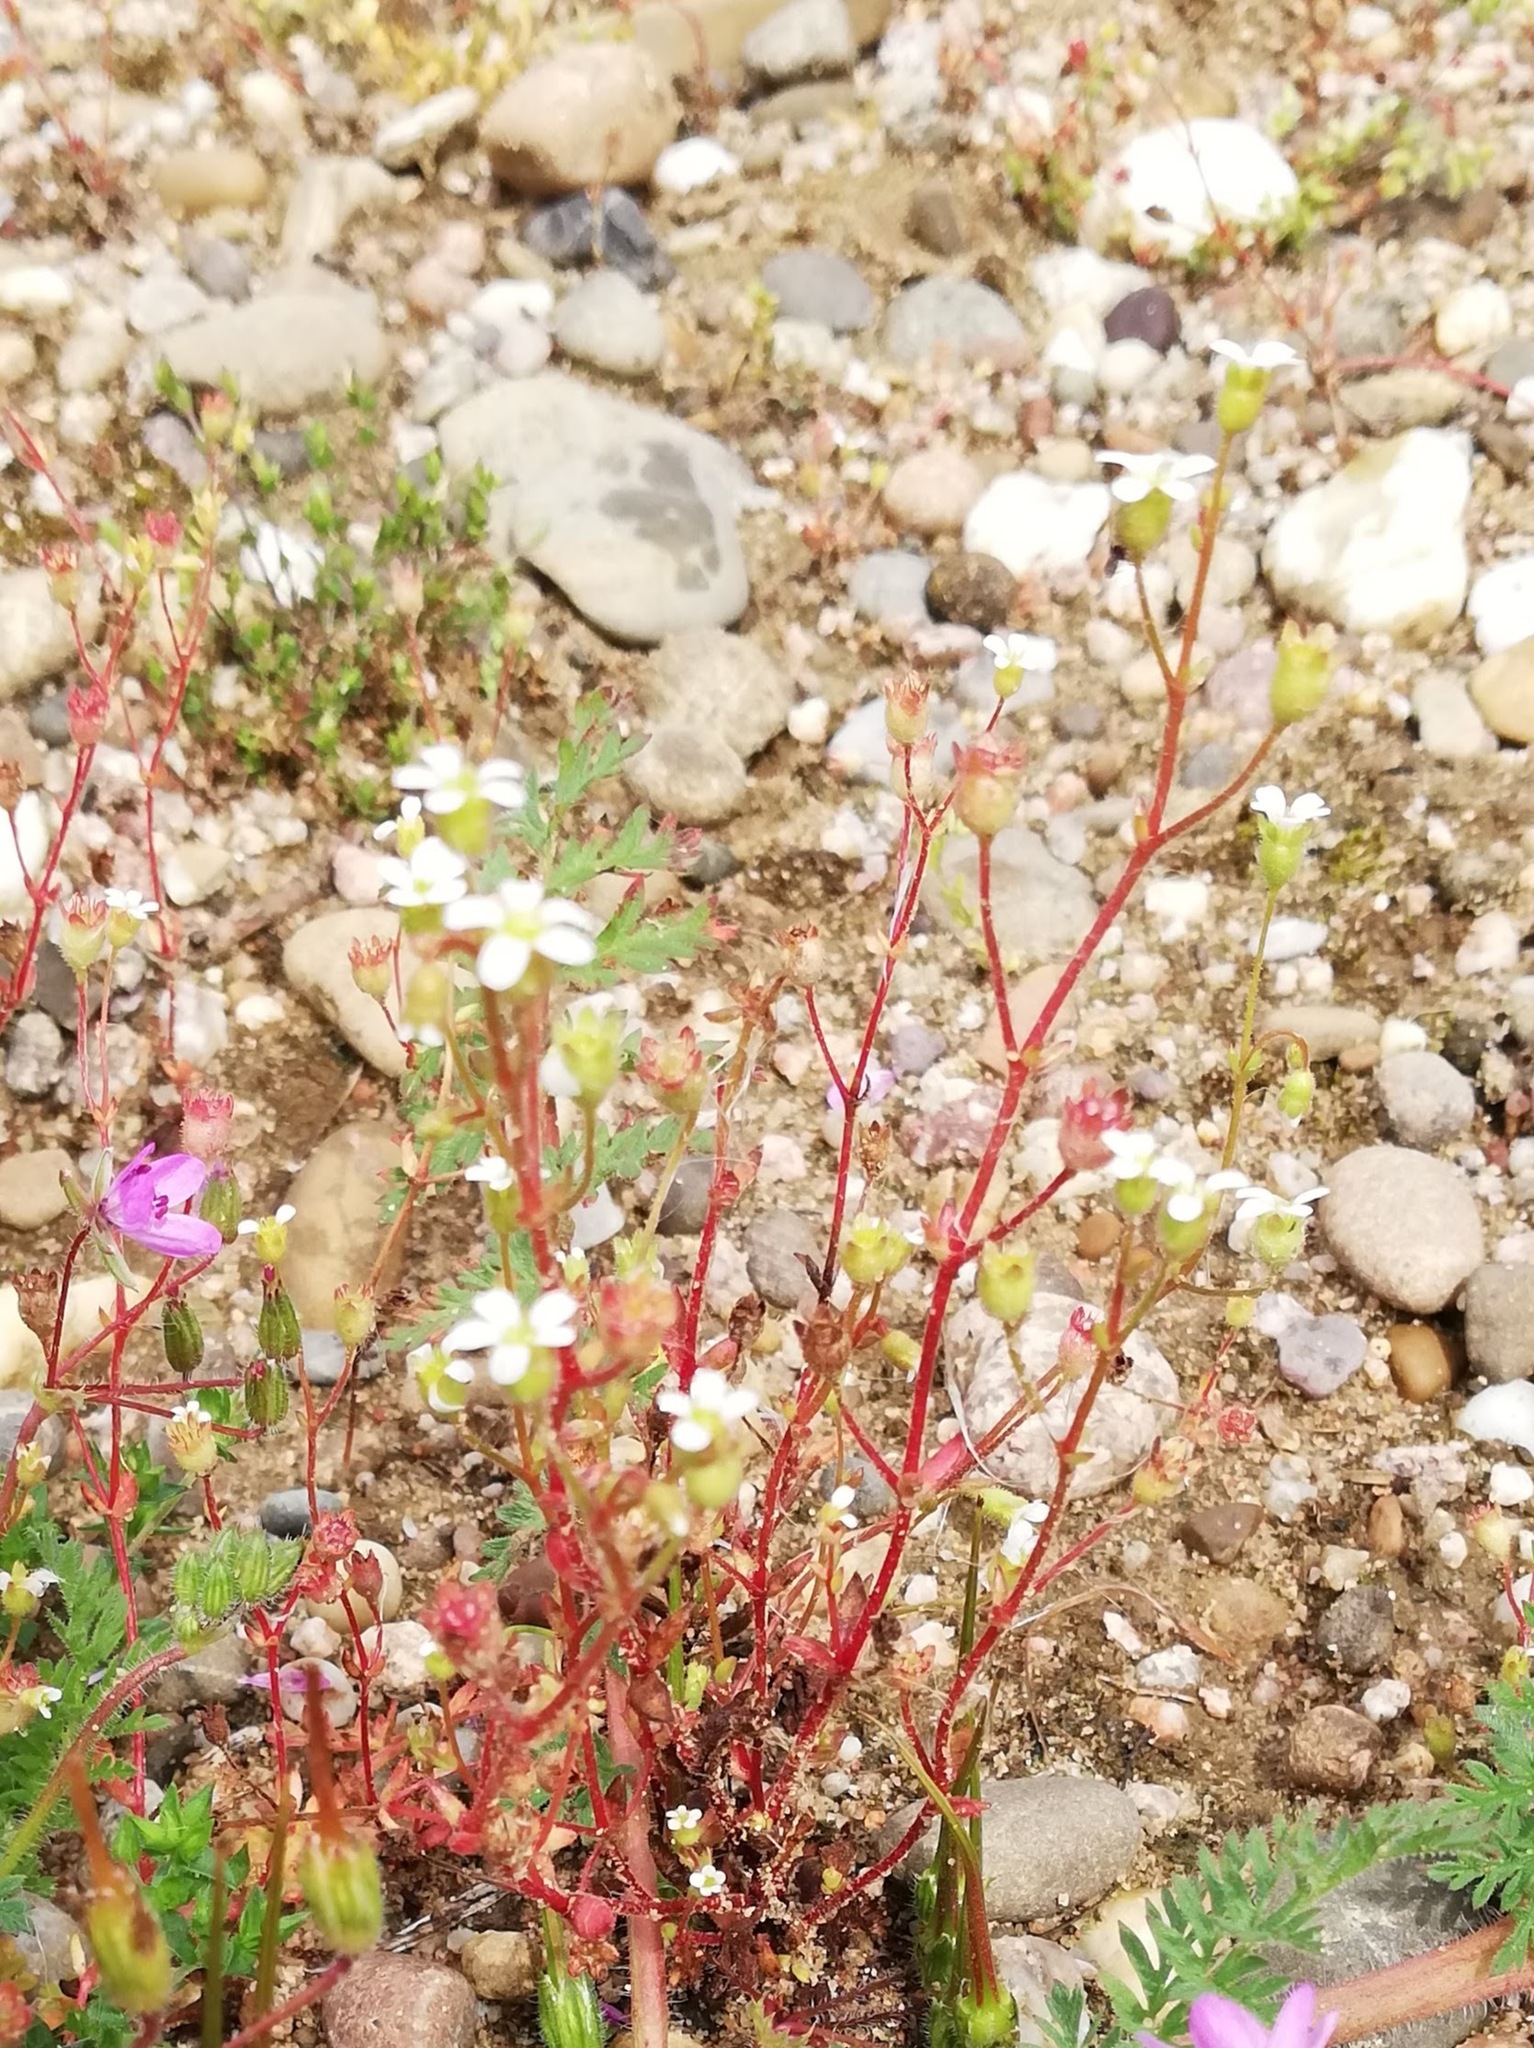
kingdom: Plantae
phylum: Tracheophyta
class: Magnoliopsida
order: Saxifragales
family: Saxifragaceae
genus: Saxifraga
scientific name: Saxifraga tridactylites
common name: Rue-leaved saxifrage
